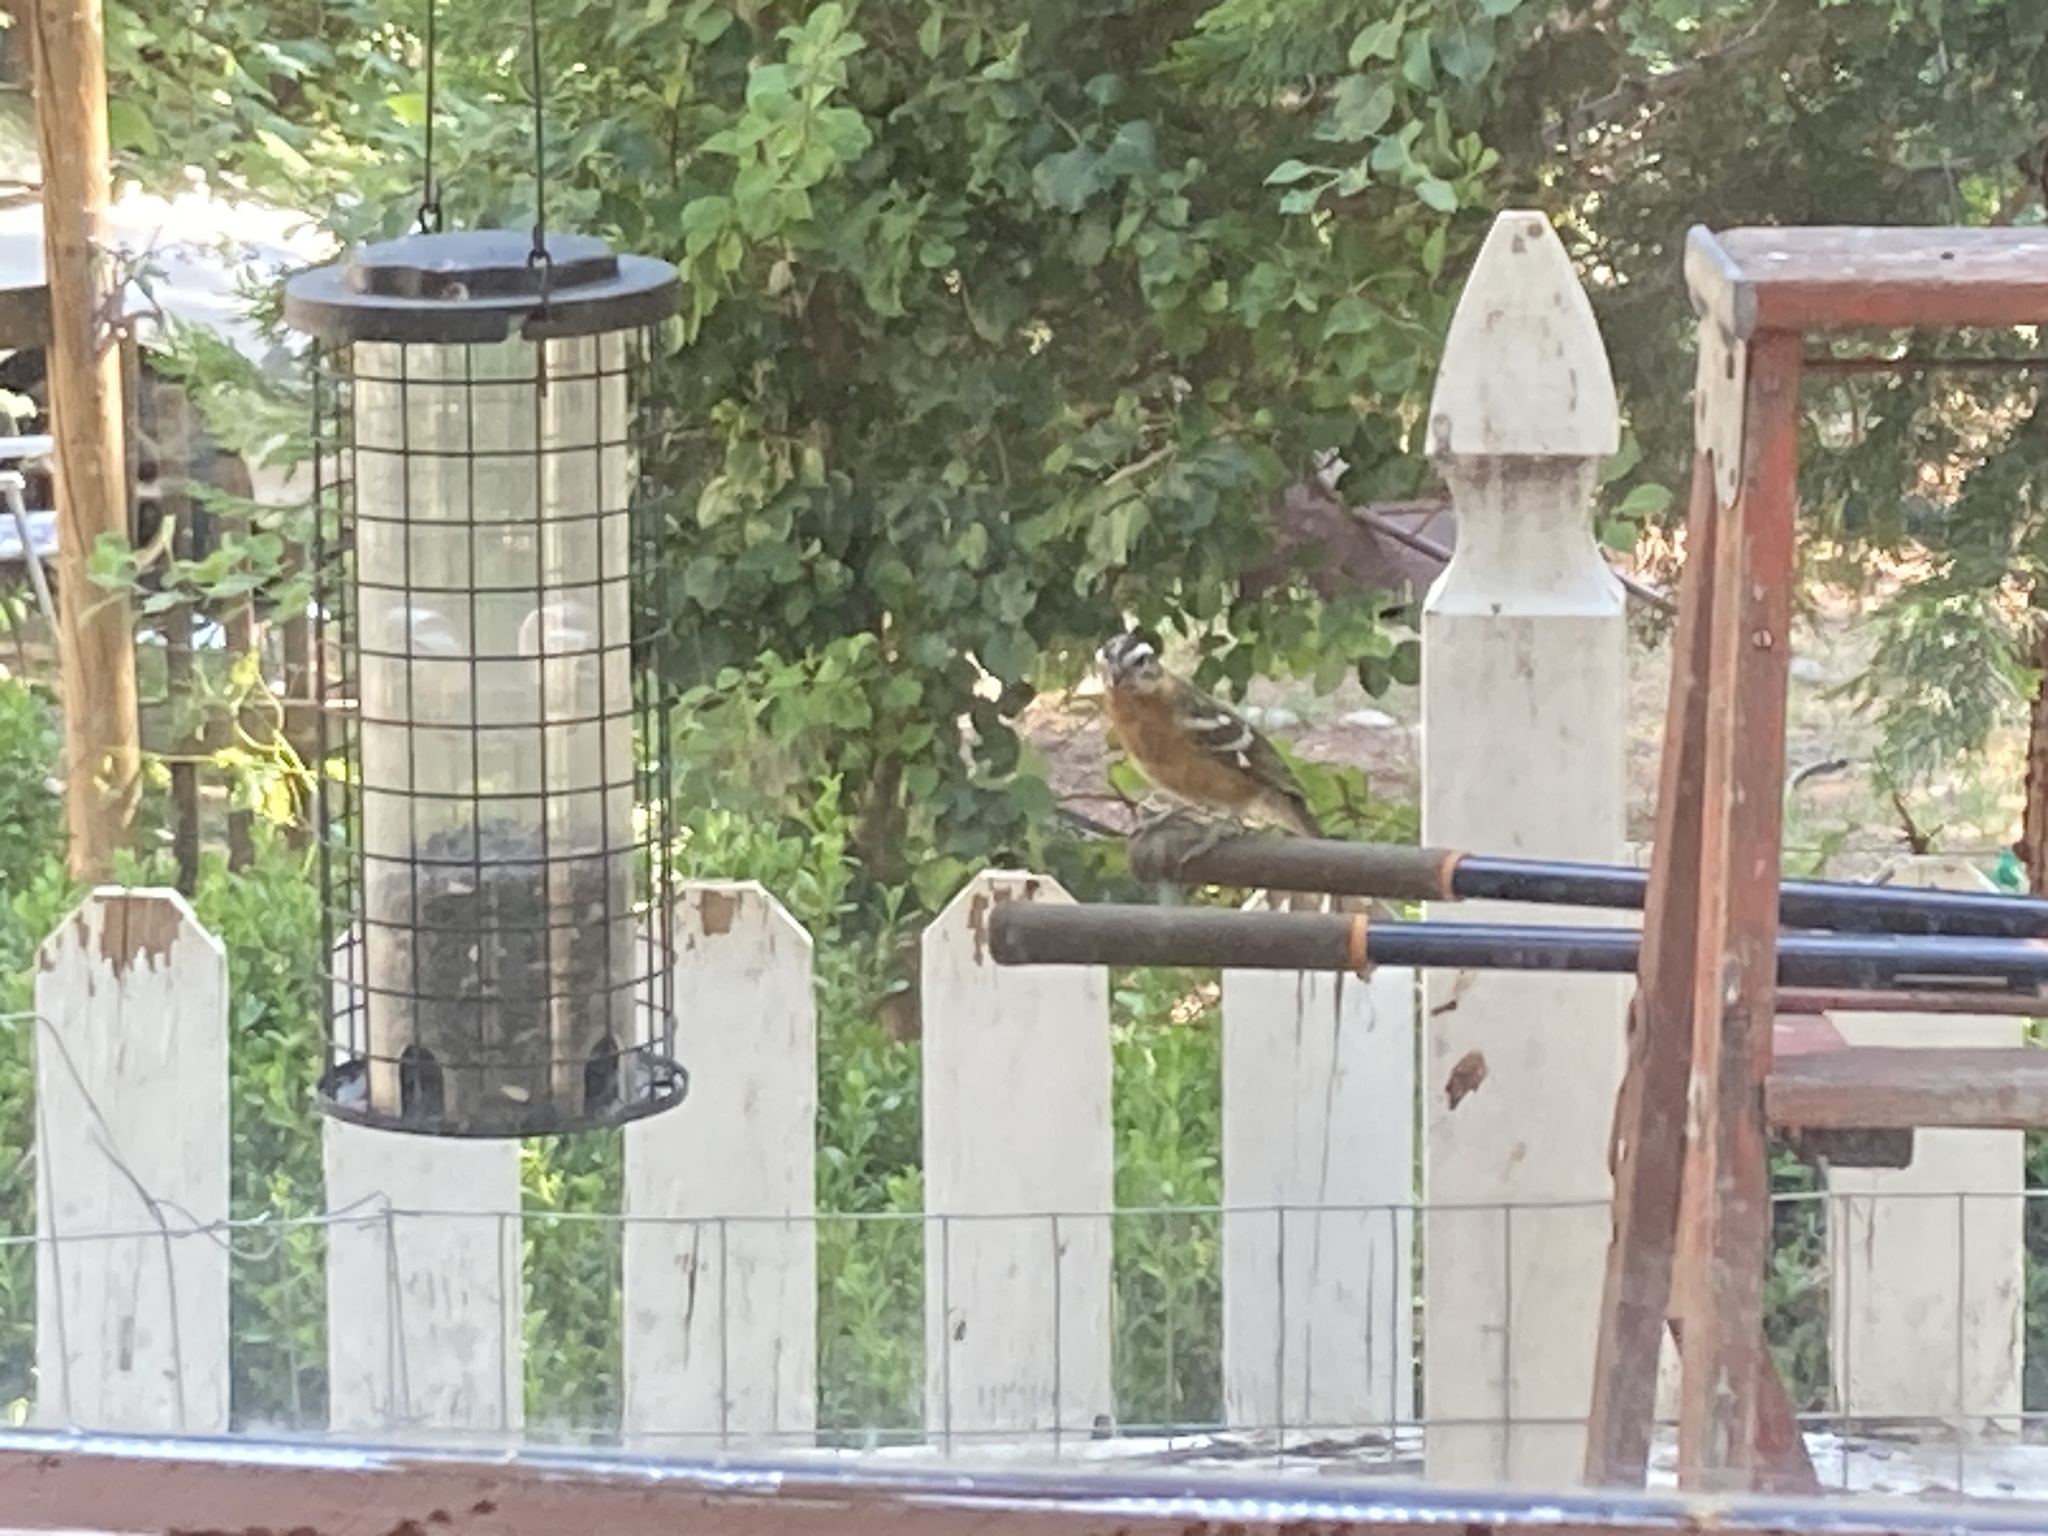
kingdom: Animalia
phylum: Chordata
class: Aves
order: Passeriformes
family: Cardinalidae
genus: Pheucticus
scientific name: Pheucticus melanocephalus
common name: Black-headed grosbeak
